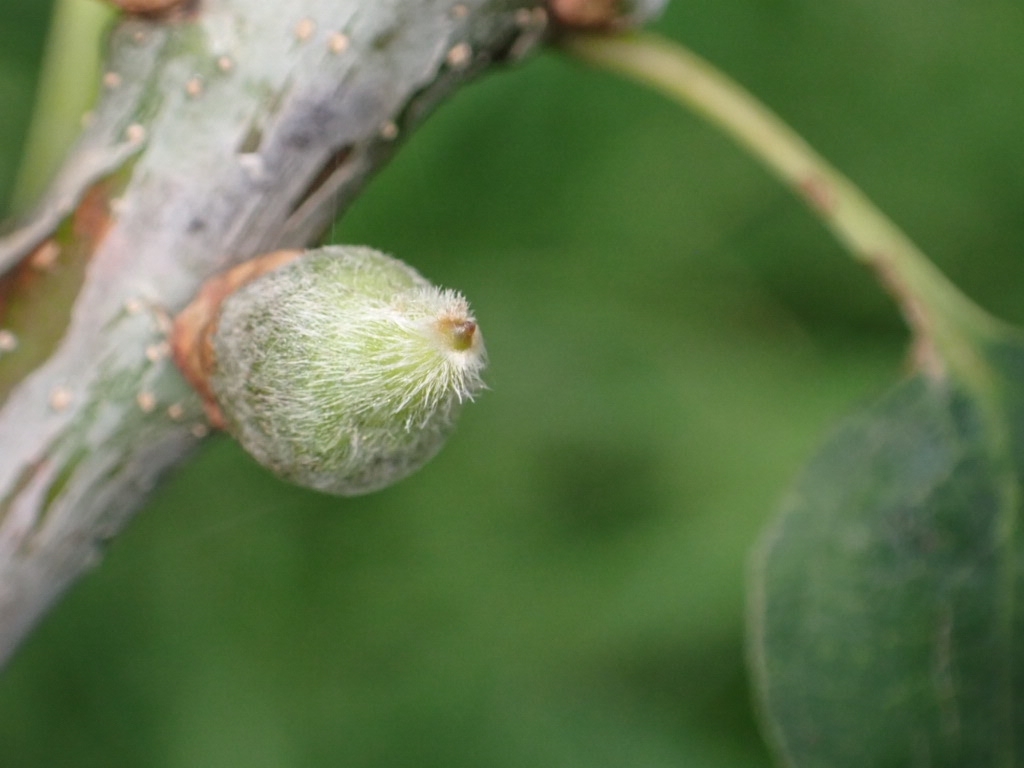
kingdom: Animalia
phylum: Arthropoda
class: Insecta
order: Hymenoptera
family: Cynipidae
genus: Andricus
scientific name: Andricus glandulae
